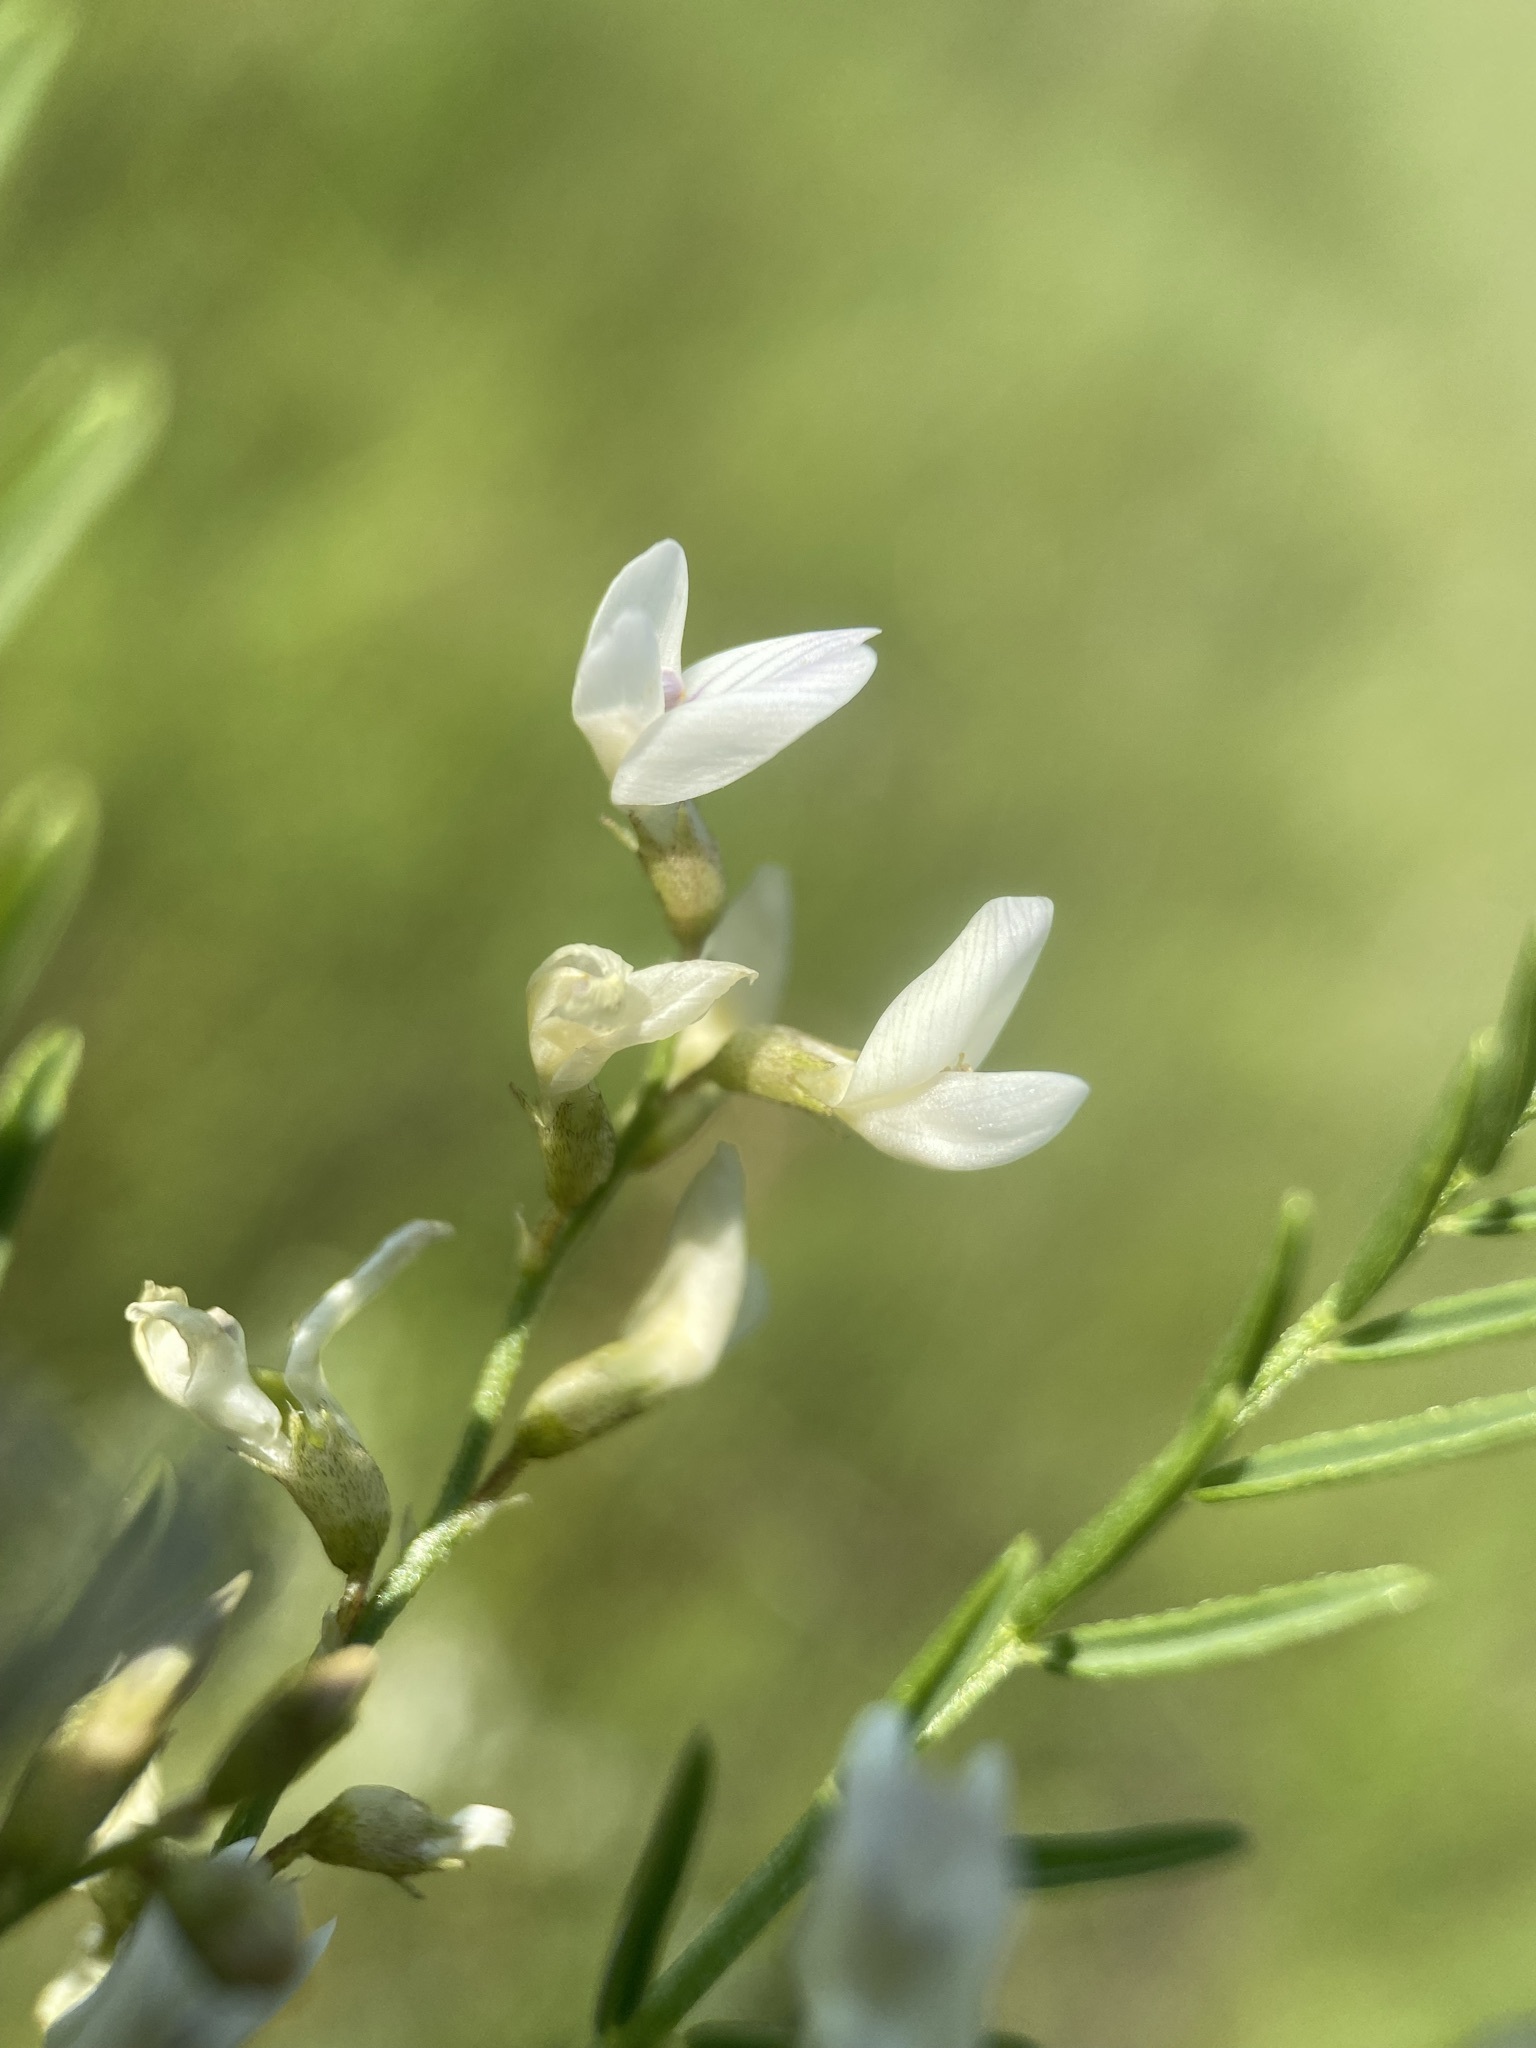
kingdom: Plantae
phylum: Tracheophyta
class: Magnoliopsida
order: Fabales
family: Fabaceae
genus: Astragalus
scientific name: Astragalus tenellus
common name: Pulse milk-vetch
